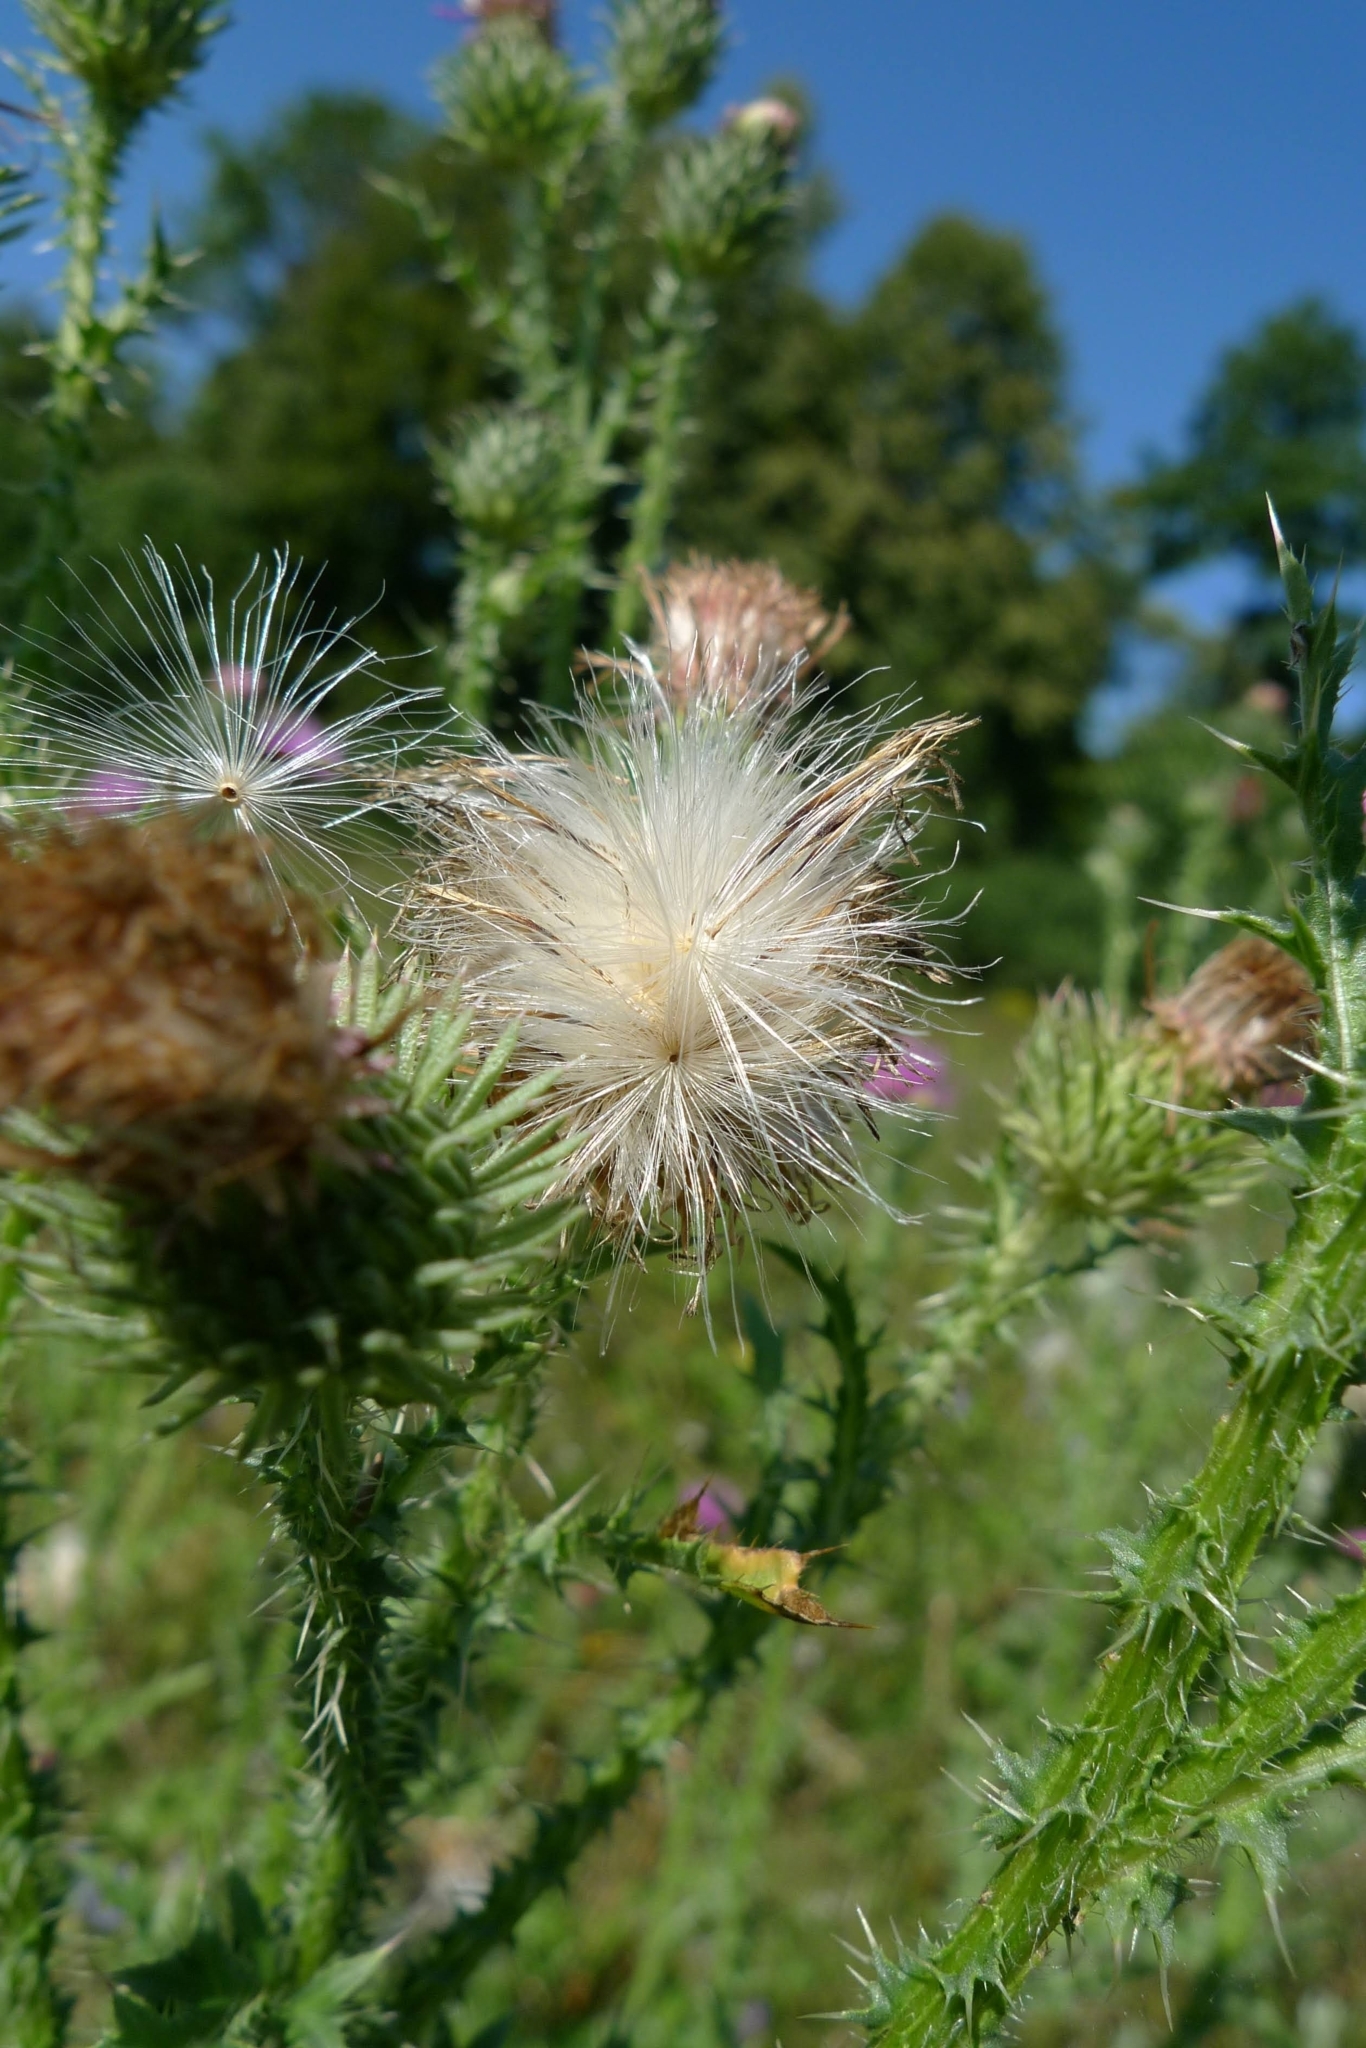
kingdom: Plantae
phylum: Tracheophyta
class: Magnoliopsida
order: Asterales
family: Asteraceae
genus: Carduus
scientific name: Carduus acanthoides
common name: Plumeless thistle
